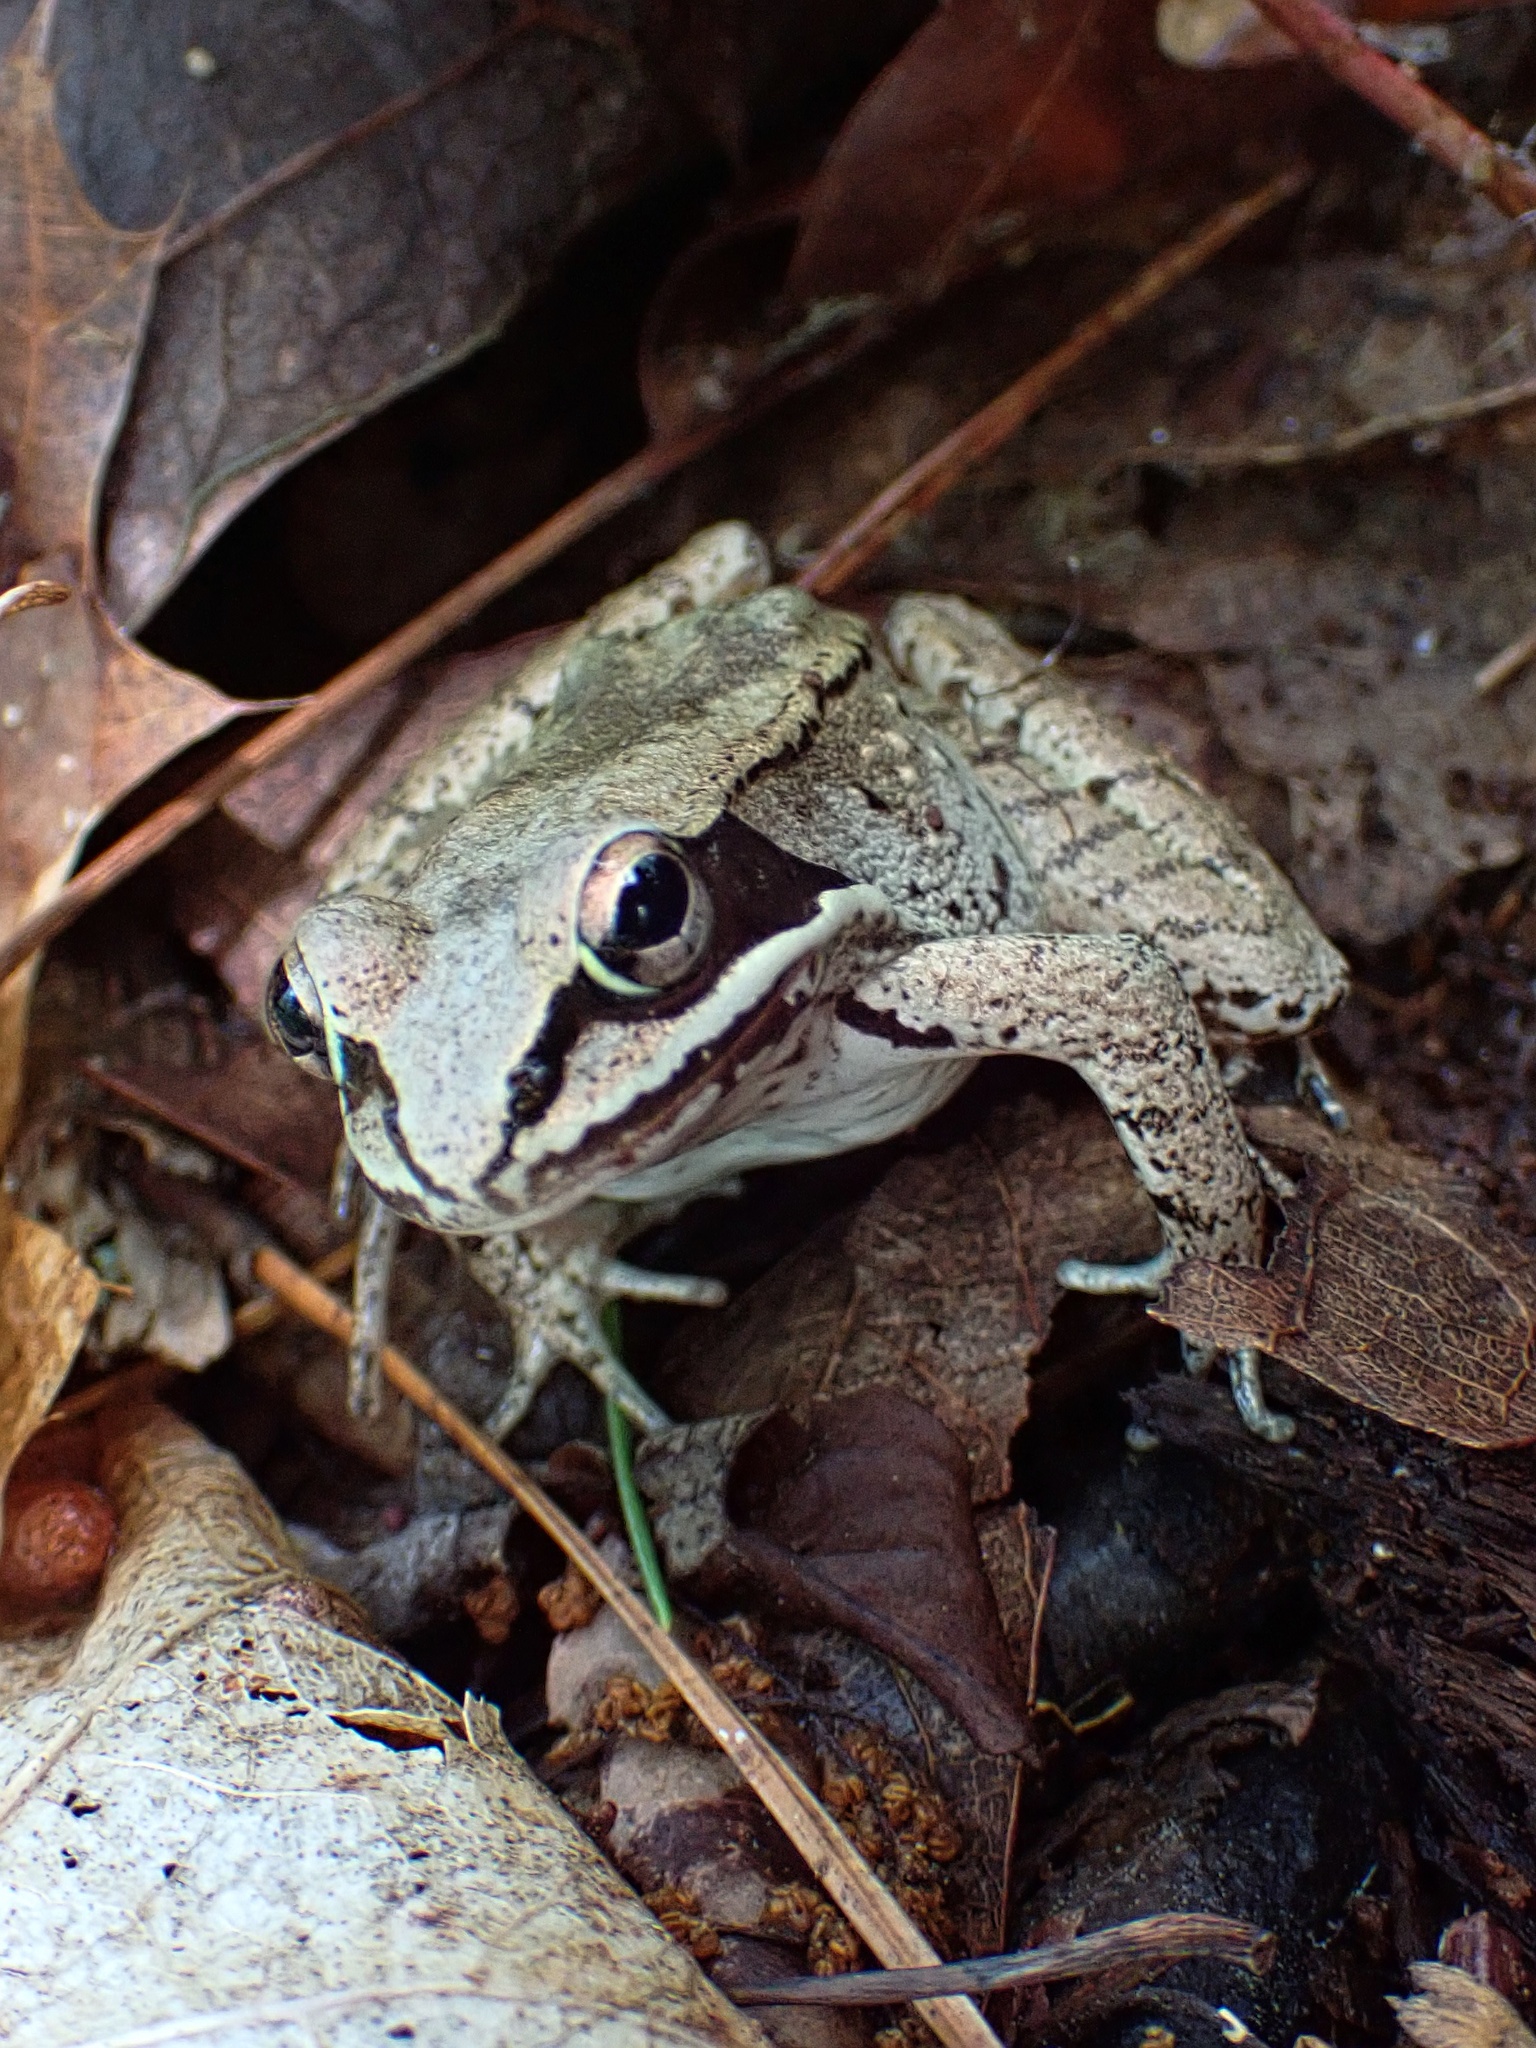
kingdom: Animalia
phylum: Chordata
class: Amphibia
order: Anura
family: Ranidae
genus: Lithobates
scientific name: Lithobates sylvaticus
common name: Wood frog
